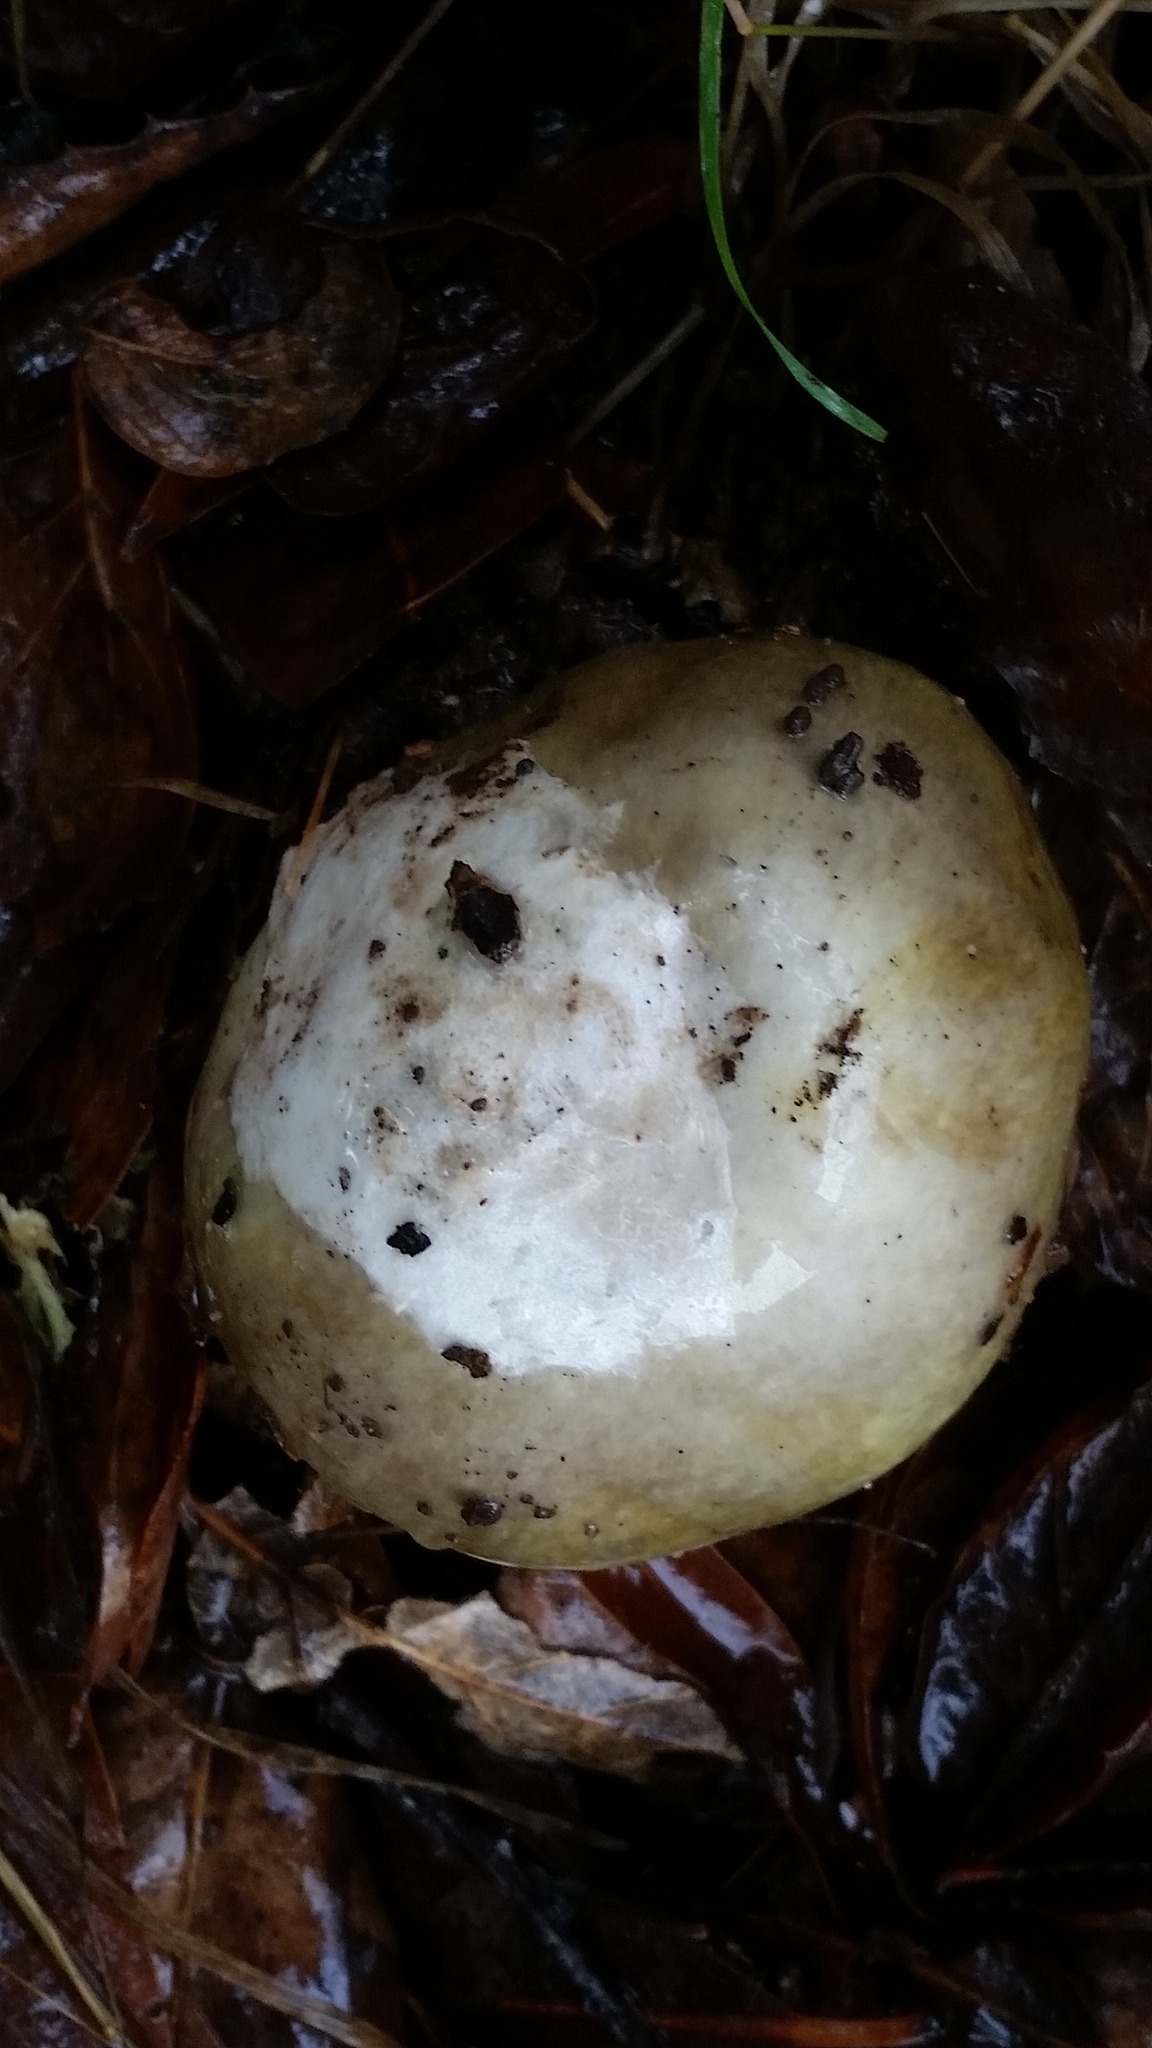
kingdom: Fungi
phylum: Basidiomycota
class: Agaricomycetes
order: Agaricales
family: Amanitaceae
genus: Amanita
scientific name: Amanita calyptroderma
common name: Coccora
